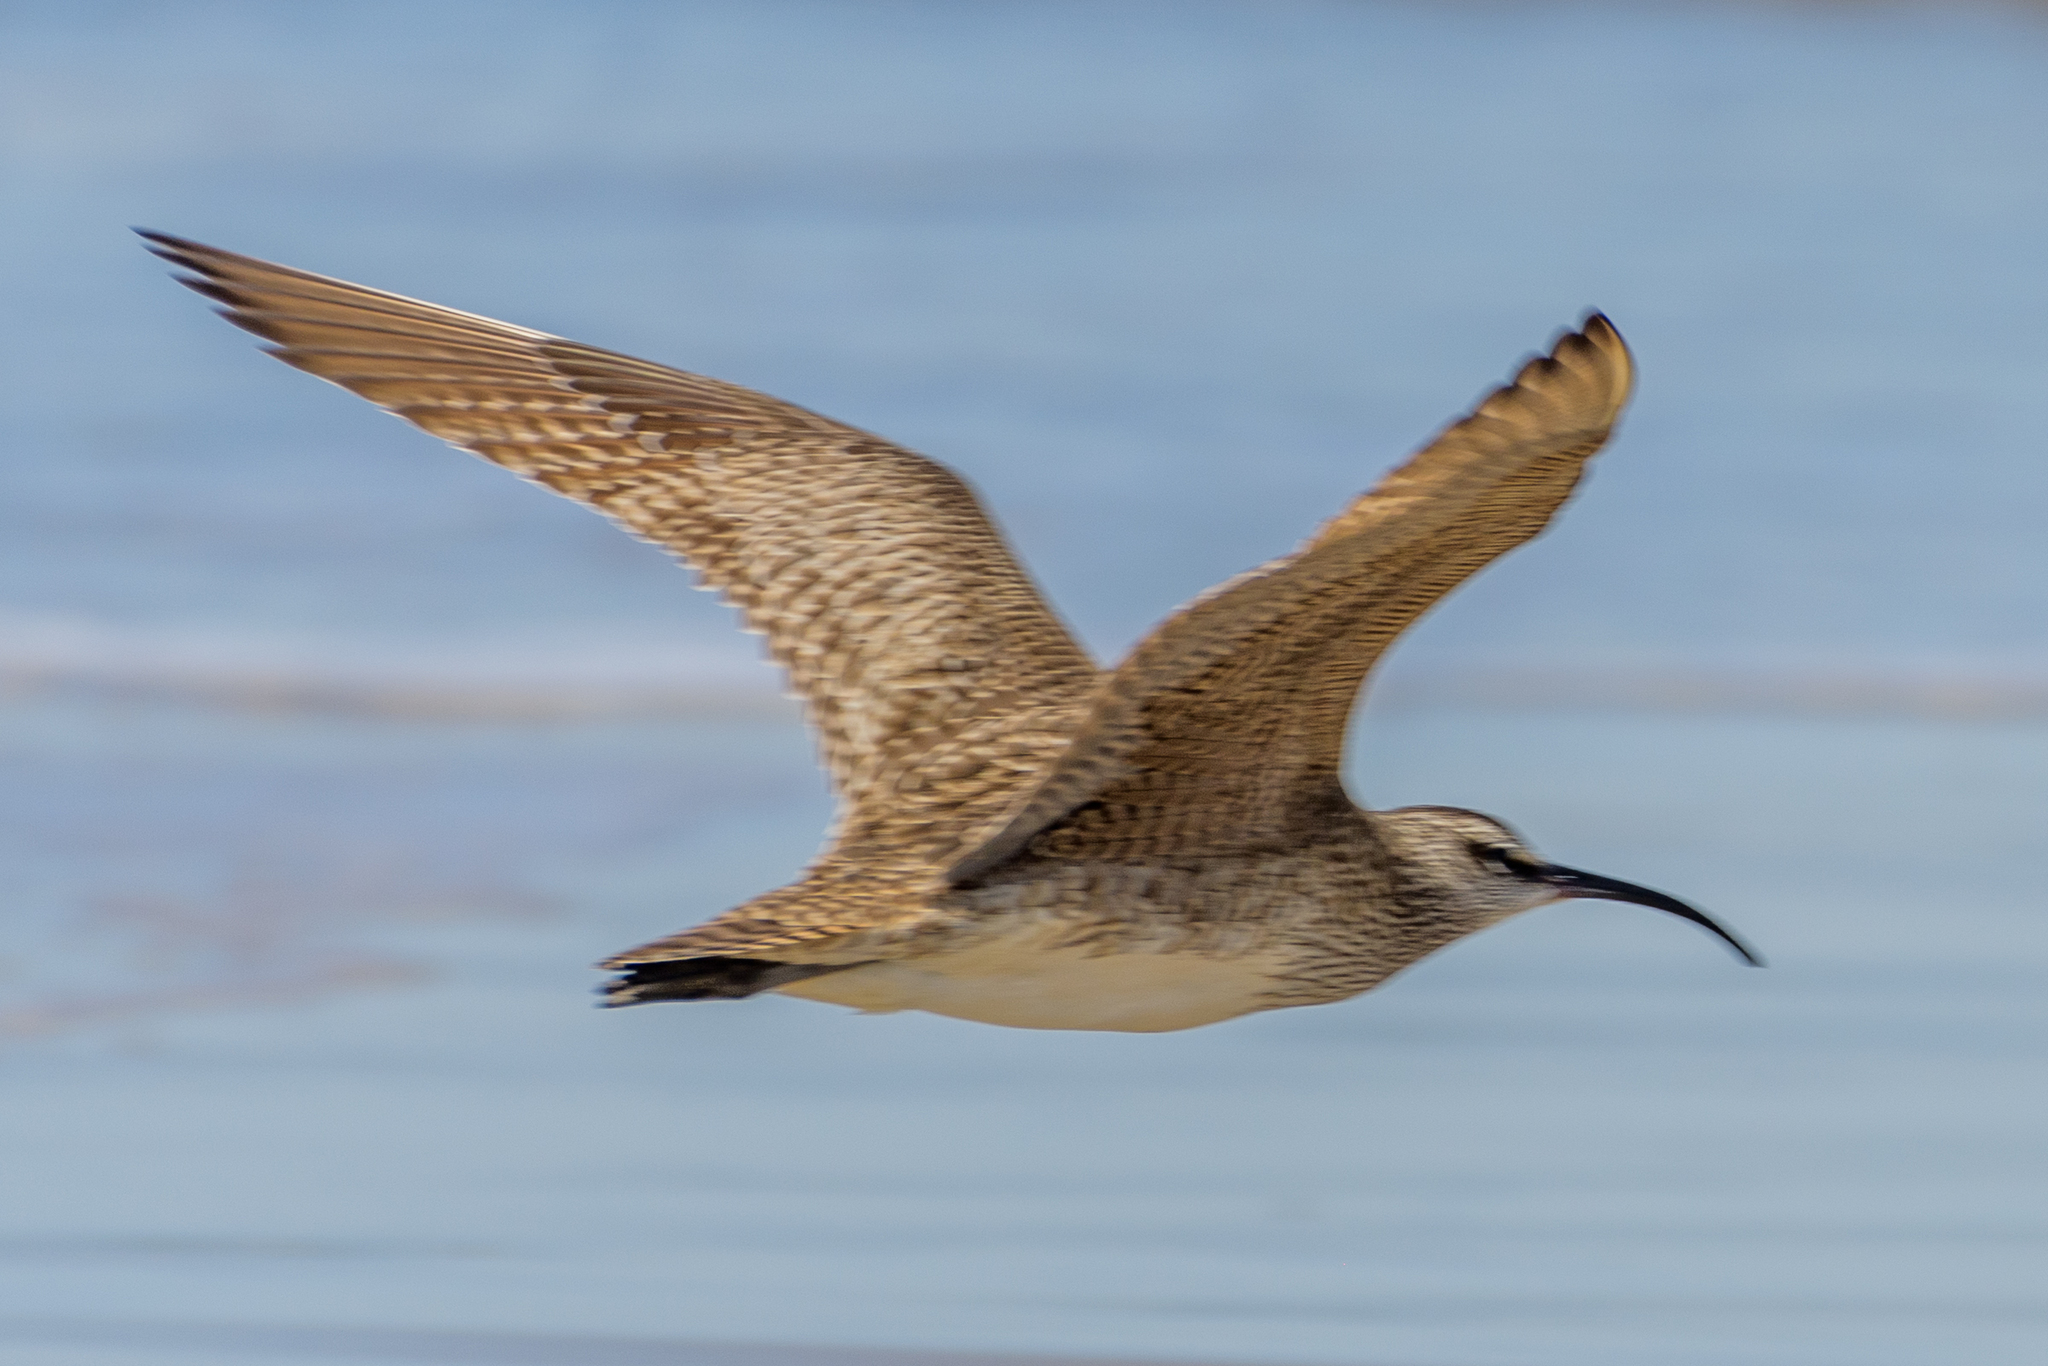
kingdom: Animalia
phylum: Chordata
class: Aves
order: Charadriiformes
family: Scolopacidae
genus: Numenius
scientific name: Numenius phaeopus
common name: Whimbrel
